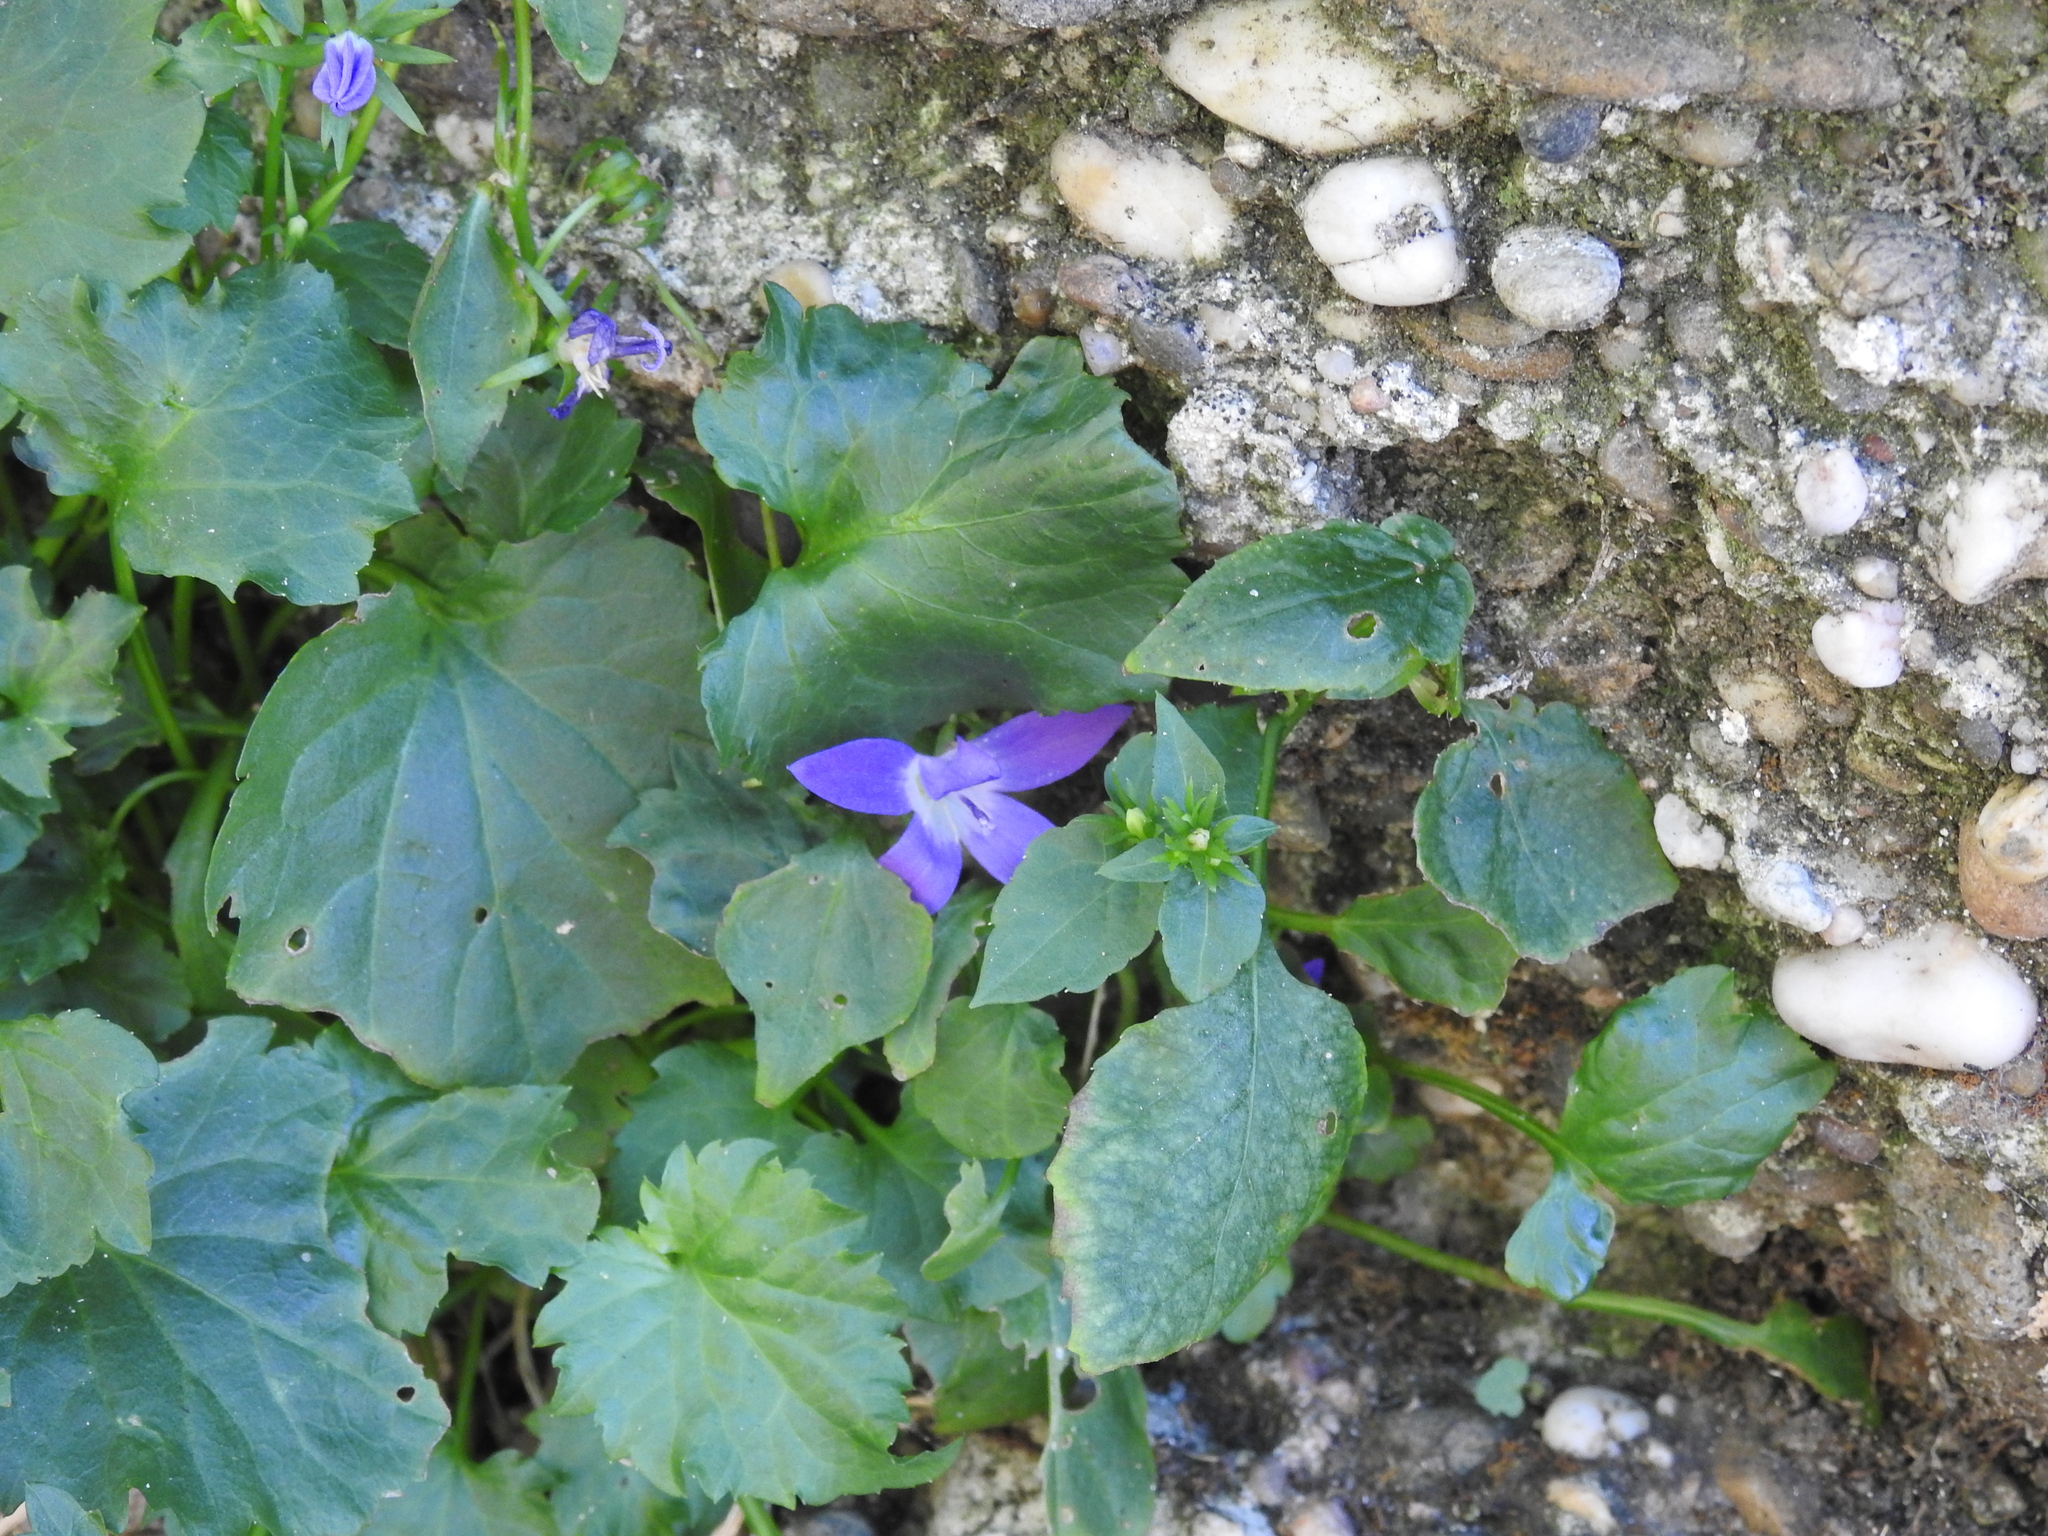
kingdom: Plantae
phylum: Tracheophyta
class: Magnoliopsida
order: Asterales
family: Campanulaceae
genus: Campanula
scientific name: Campanula poscharskyana
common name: Trailing bellflower
